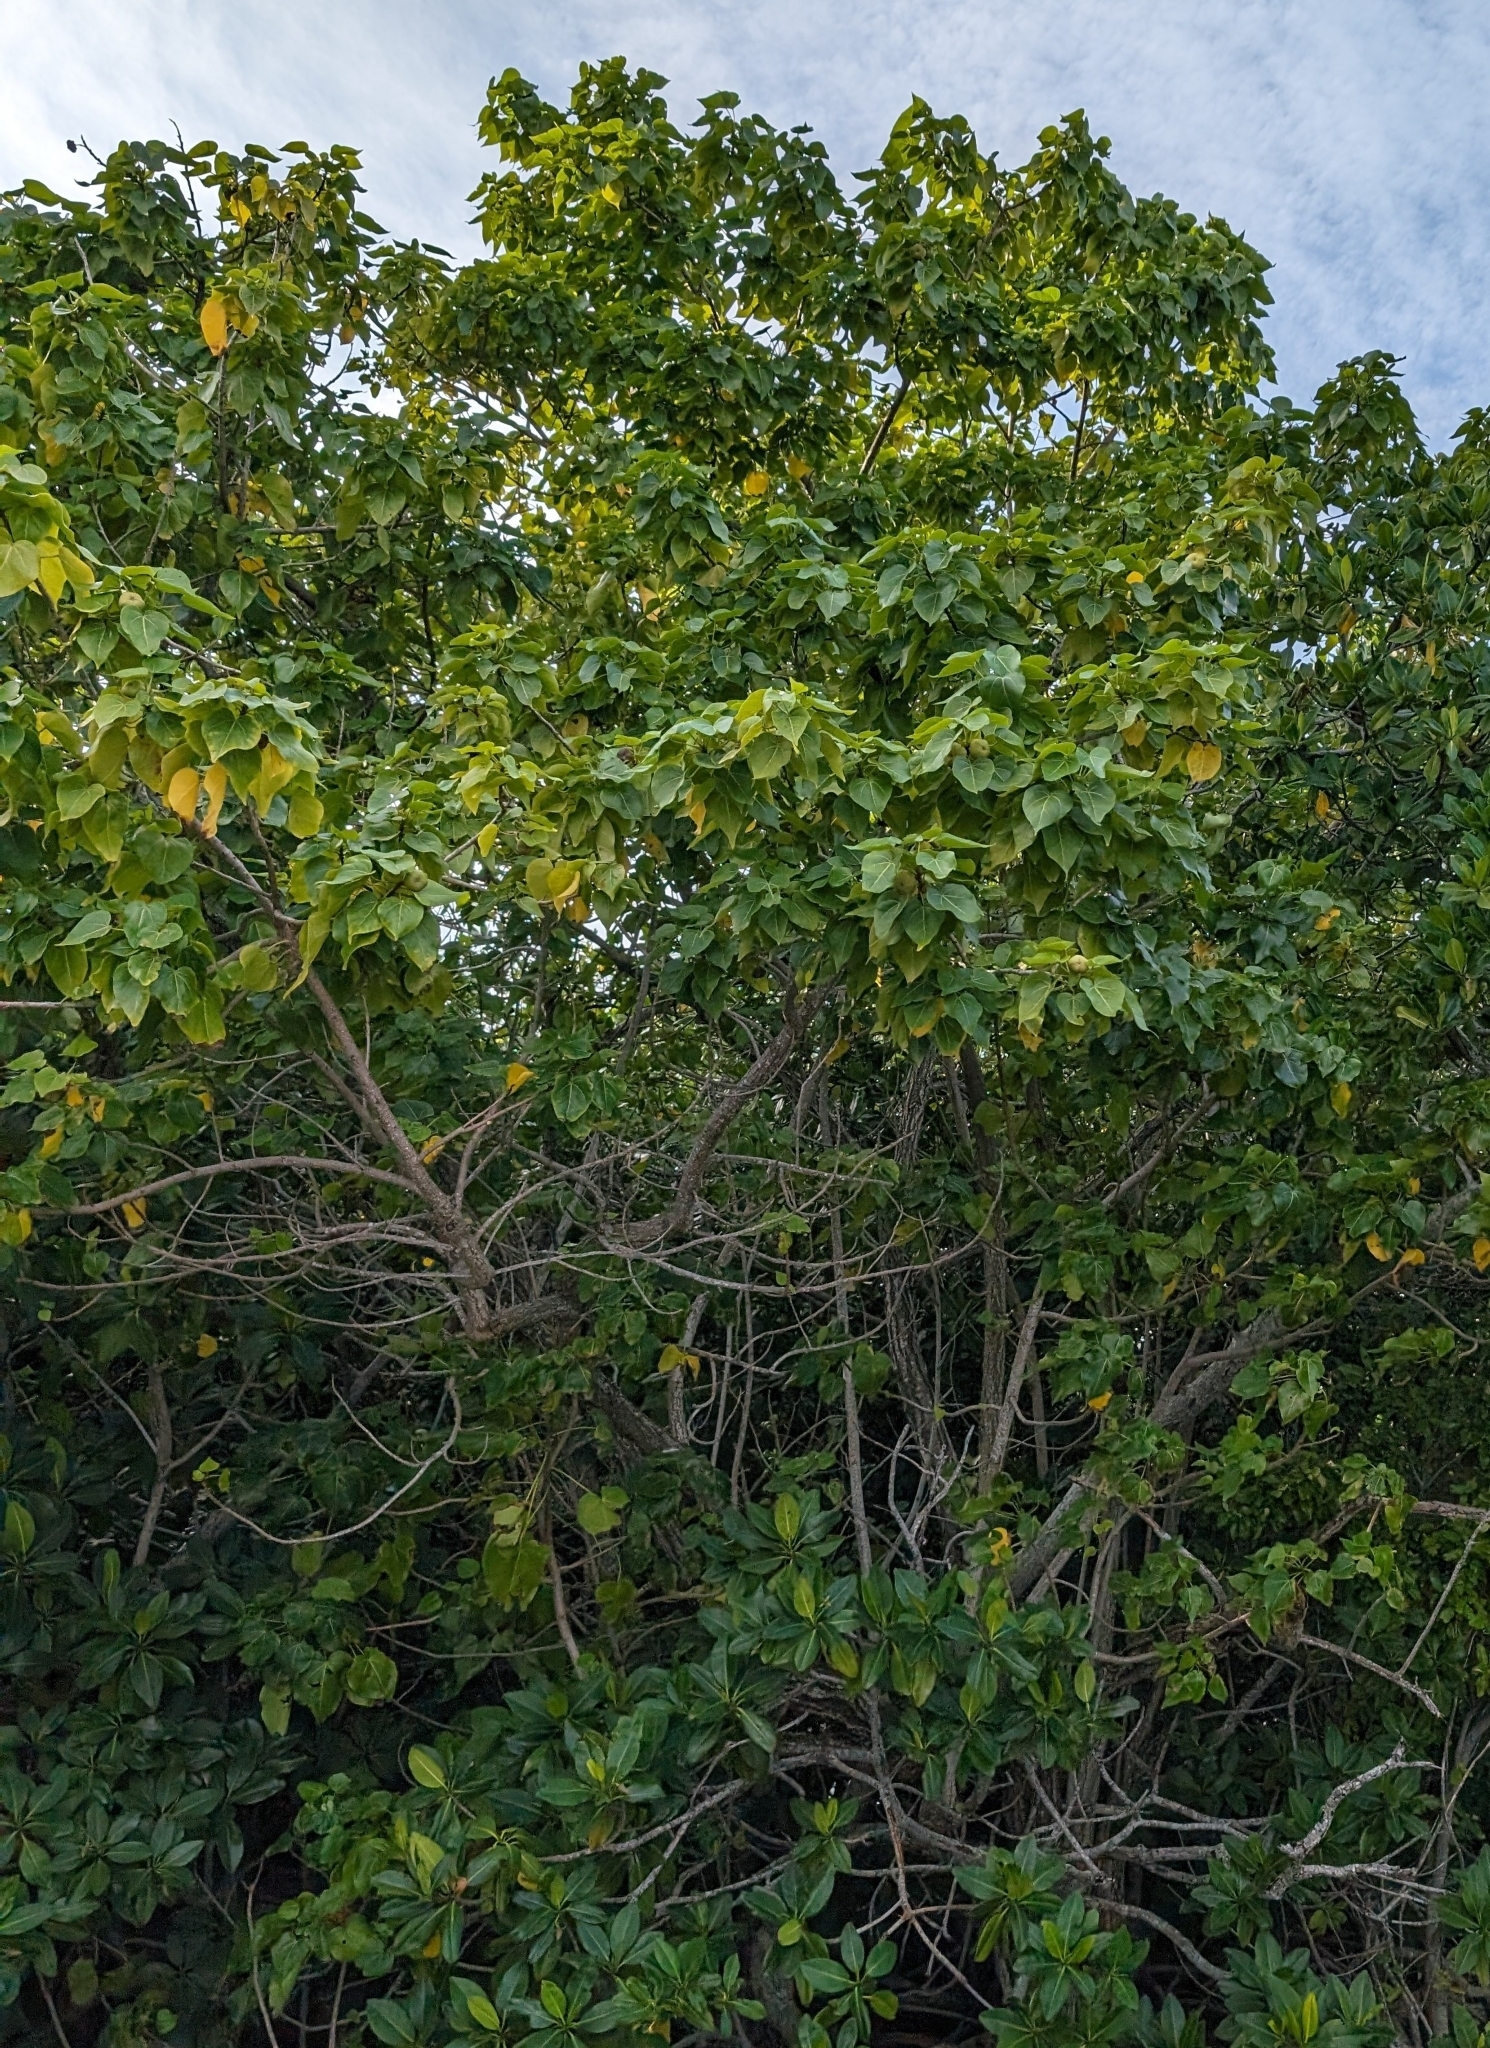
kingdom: Plantae
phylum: Tracheophyta
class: Magnoliopsida
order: Malvales
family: Malvaceae
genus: Thespesia
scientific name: Thespesia populnea
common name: Seaside mahoe
